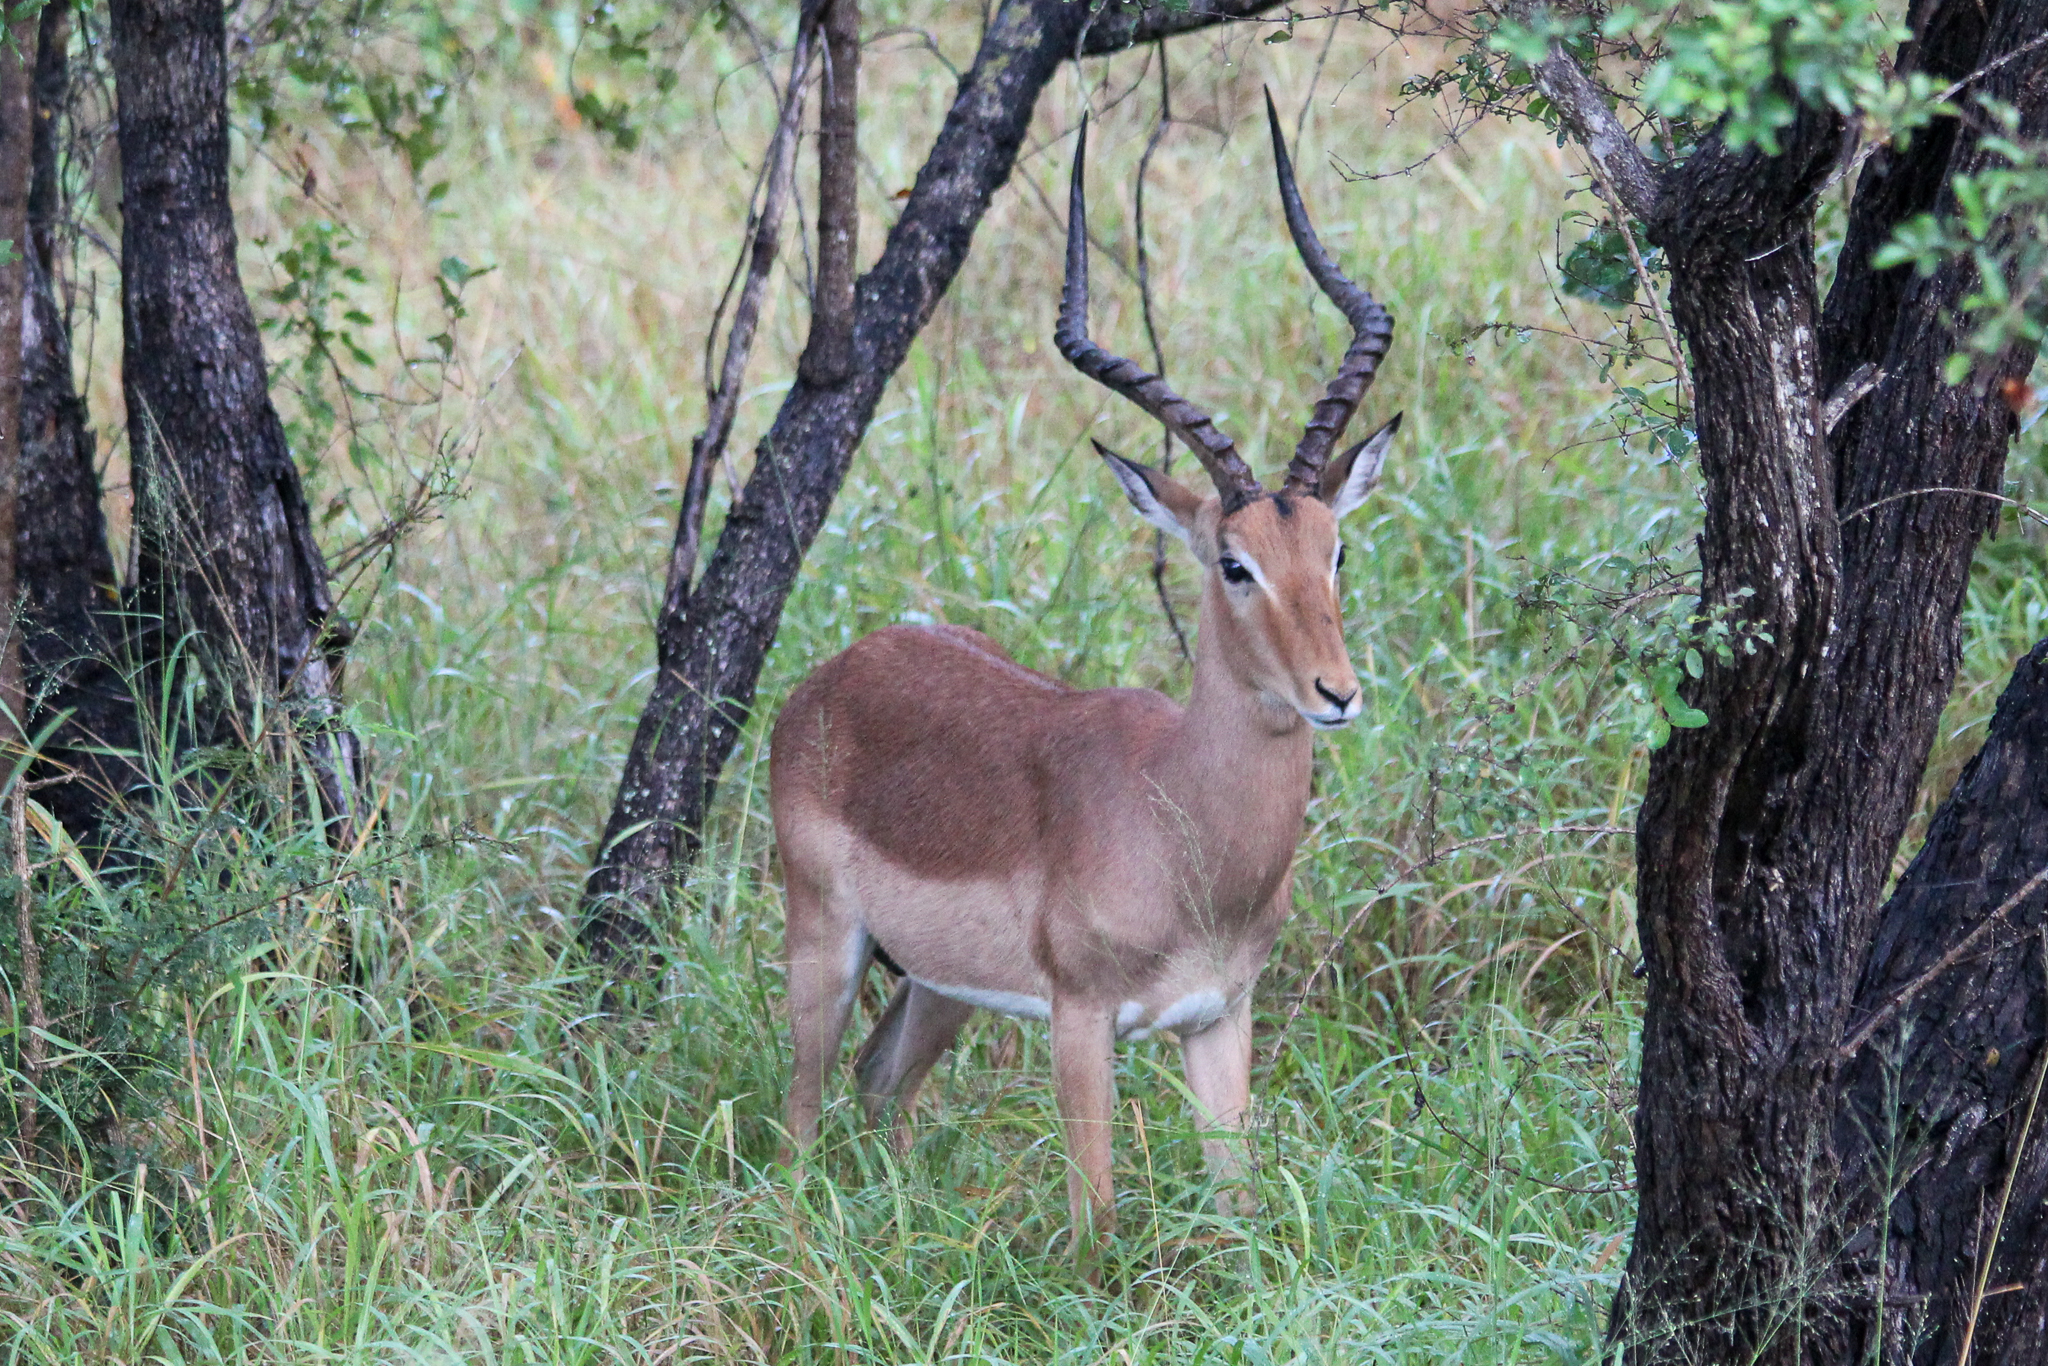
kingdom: Animalia
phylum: Chordata
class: Mammalia
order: Artiodactyla
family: Bovidae
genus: Aepyceros
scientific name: Aepyceros melampus
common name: Impala
